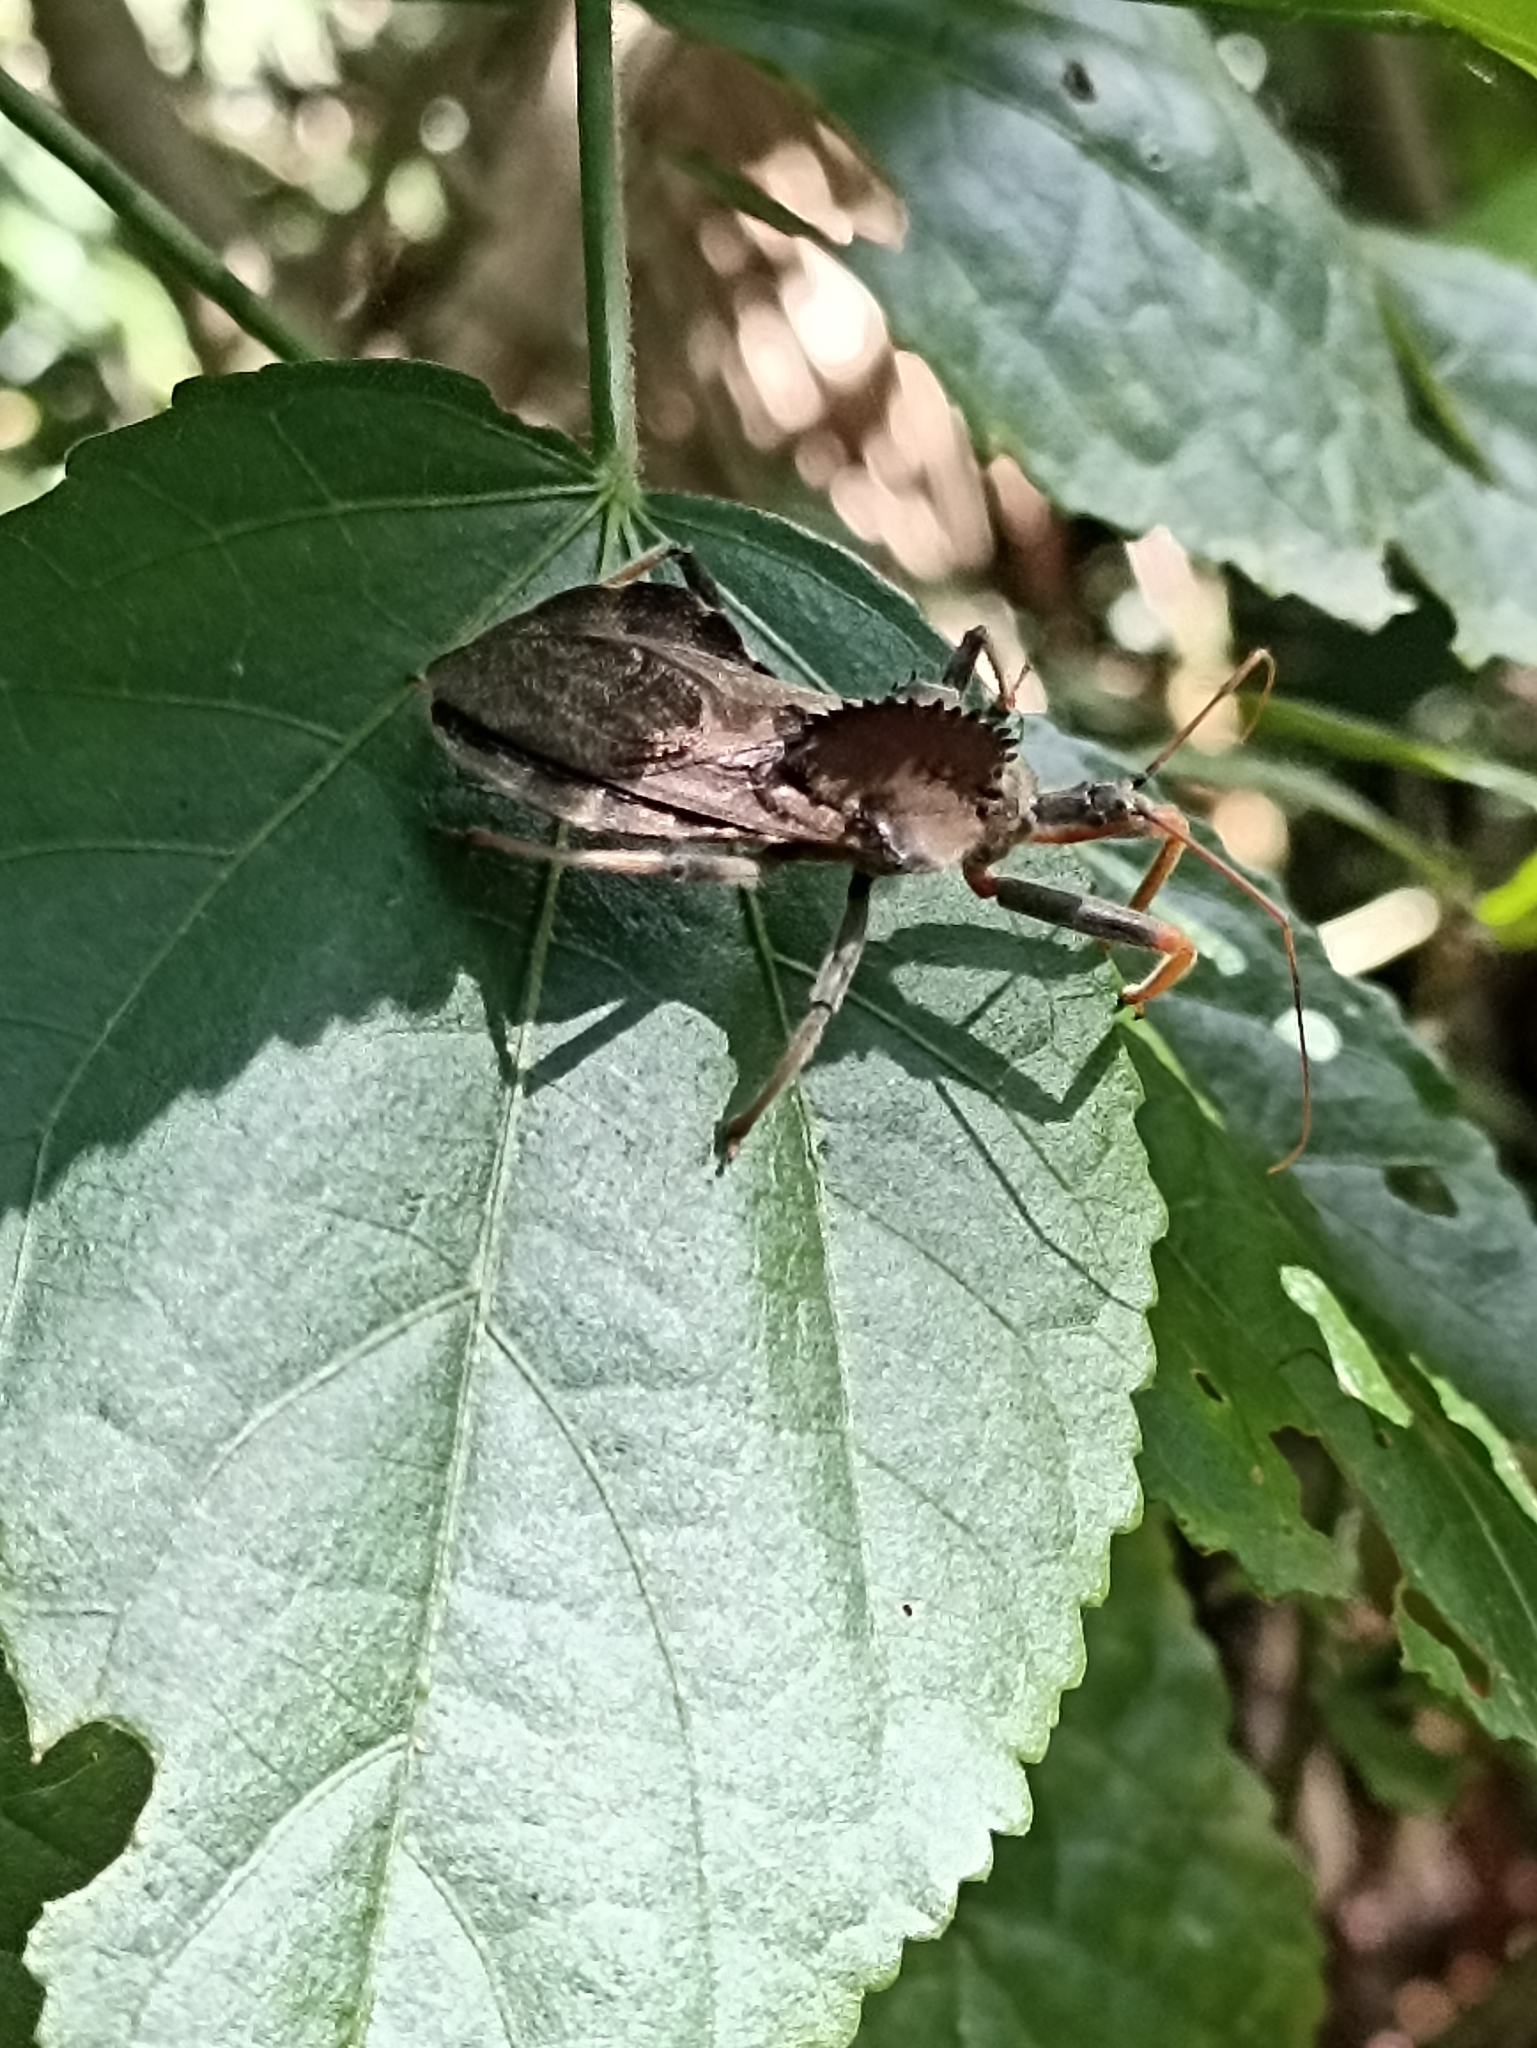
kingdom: Animalia
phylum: Arthropoda
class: Insecta
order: Hemiptera
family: Reduviidae
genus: Arilus
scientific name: Arilus carinatus
